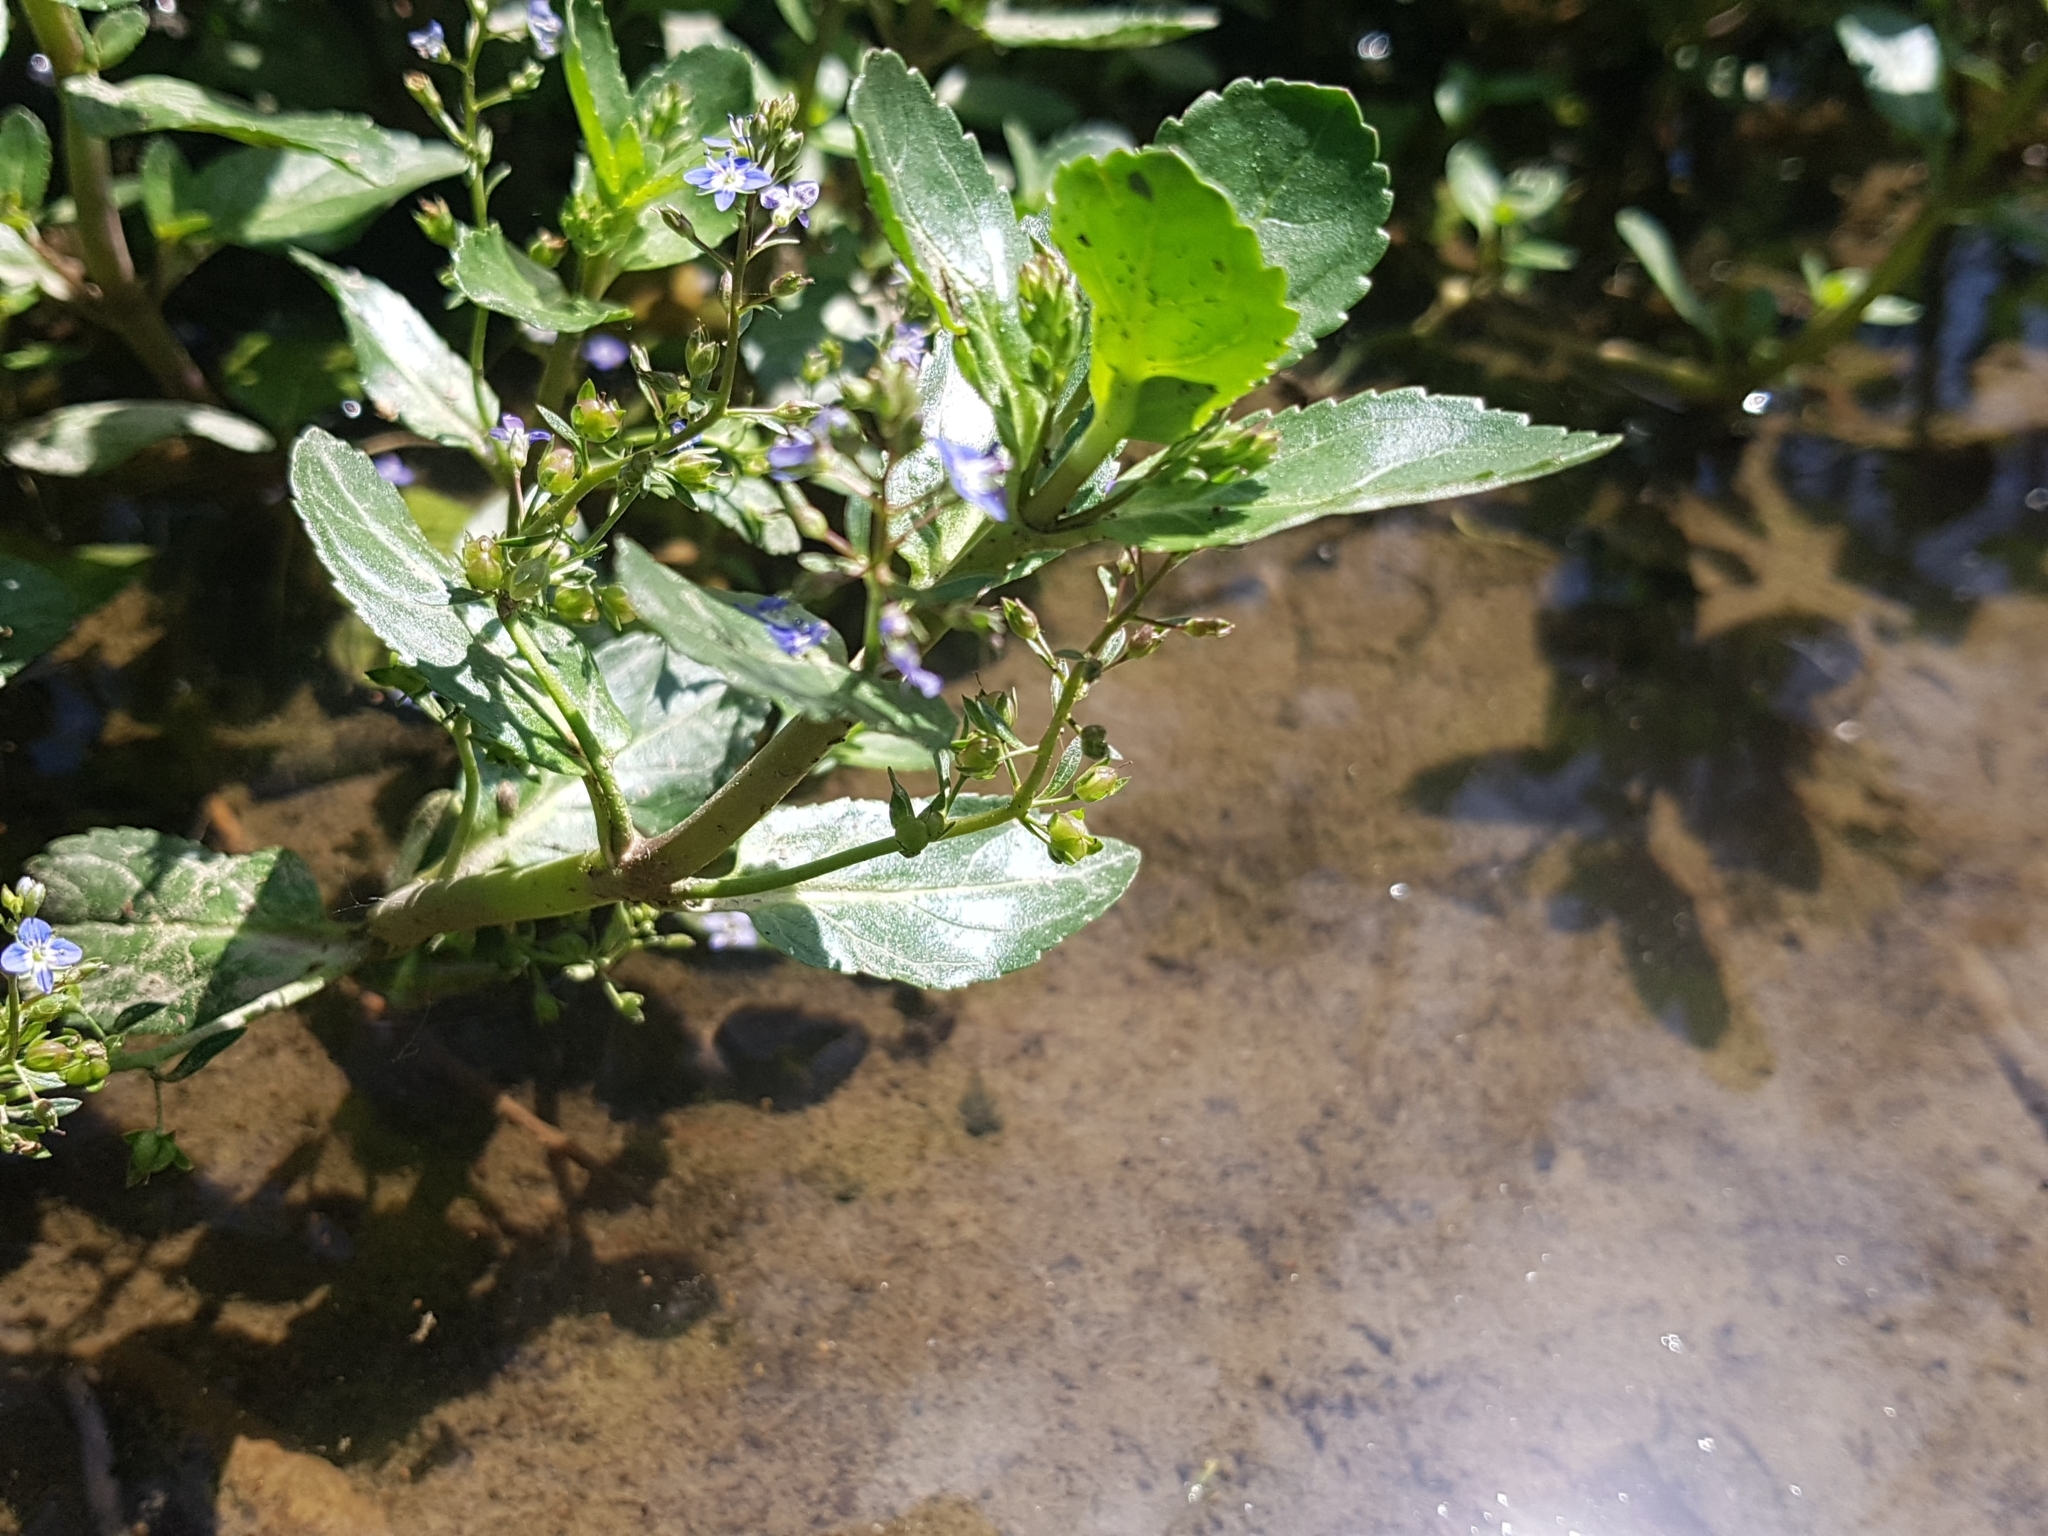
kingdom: Plantae
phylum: Tracheophyta
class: Magnoliopsida
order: Lamiales
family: Plantaginaceae
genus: Veronica
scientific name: Veronica beccabunga
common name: Brooklime
